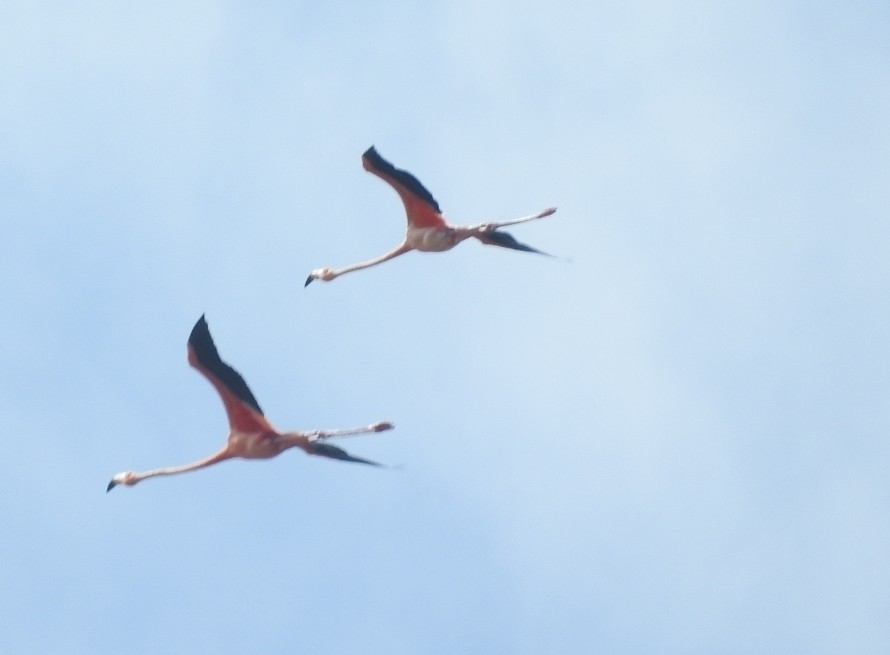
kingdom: Animalia
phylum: Chordata
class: Aves
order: Phoenicopteriformes
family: Phoenicopteridae
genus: Phoenicopterus
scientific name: Phoenicopterus ruber
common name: American flamingo
